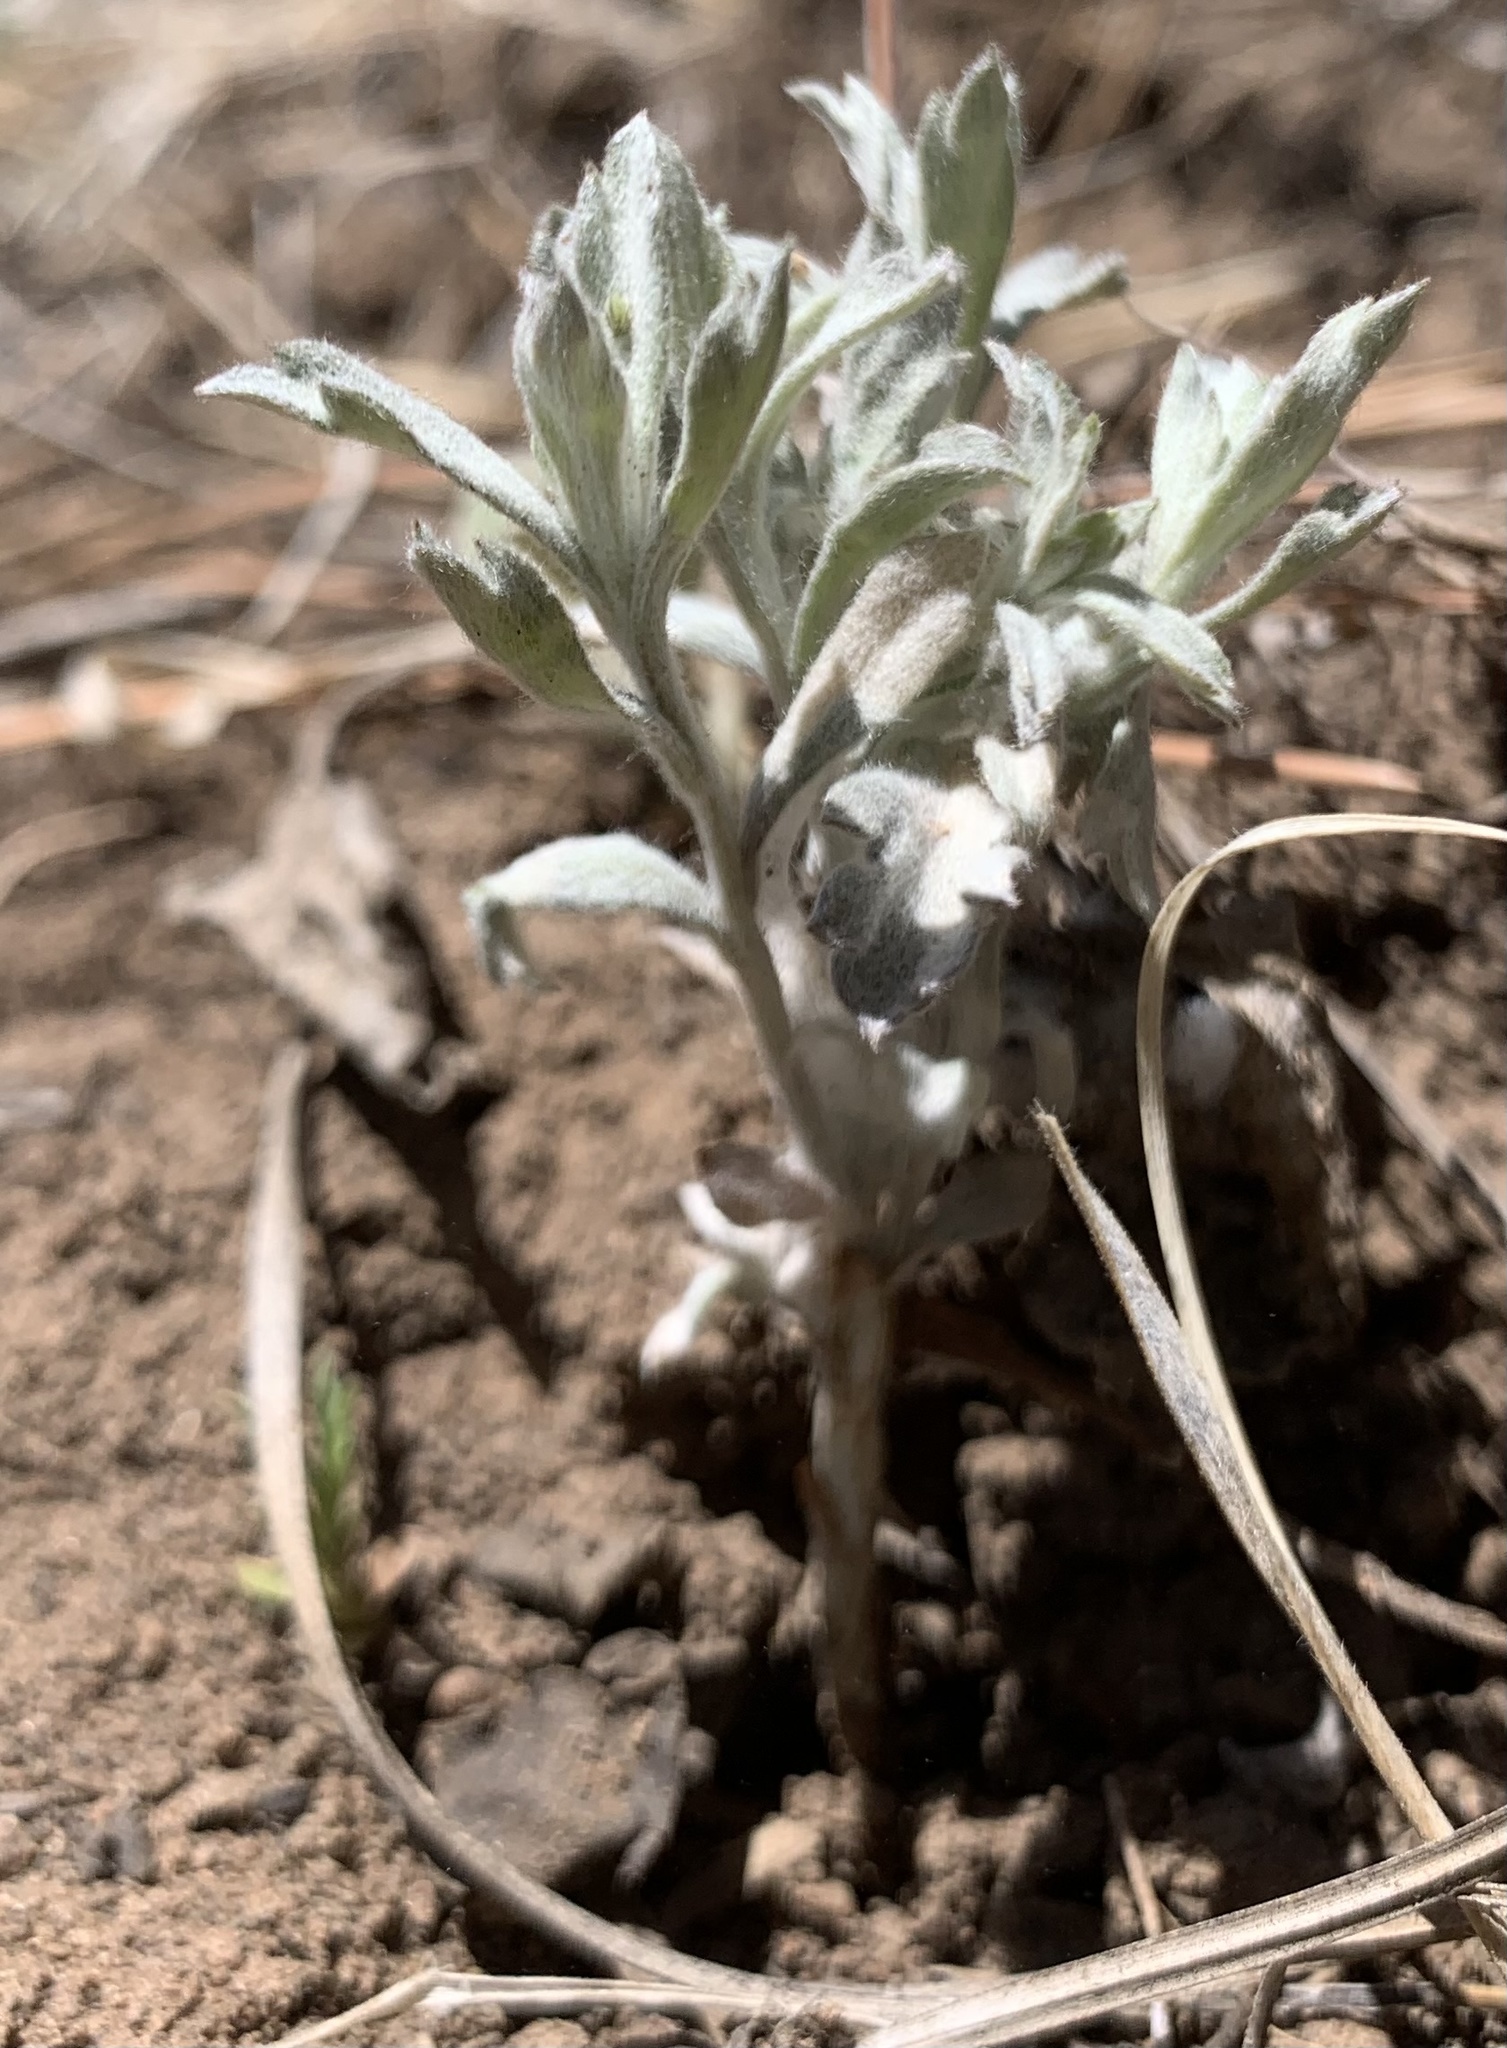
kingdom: Plantae
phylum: Tracheophyta
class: Magnoliopsida
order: Asterales
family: Asteraceae
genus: Artemisia
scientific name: Artemisia ludoviciana
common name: Western mugwort
